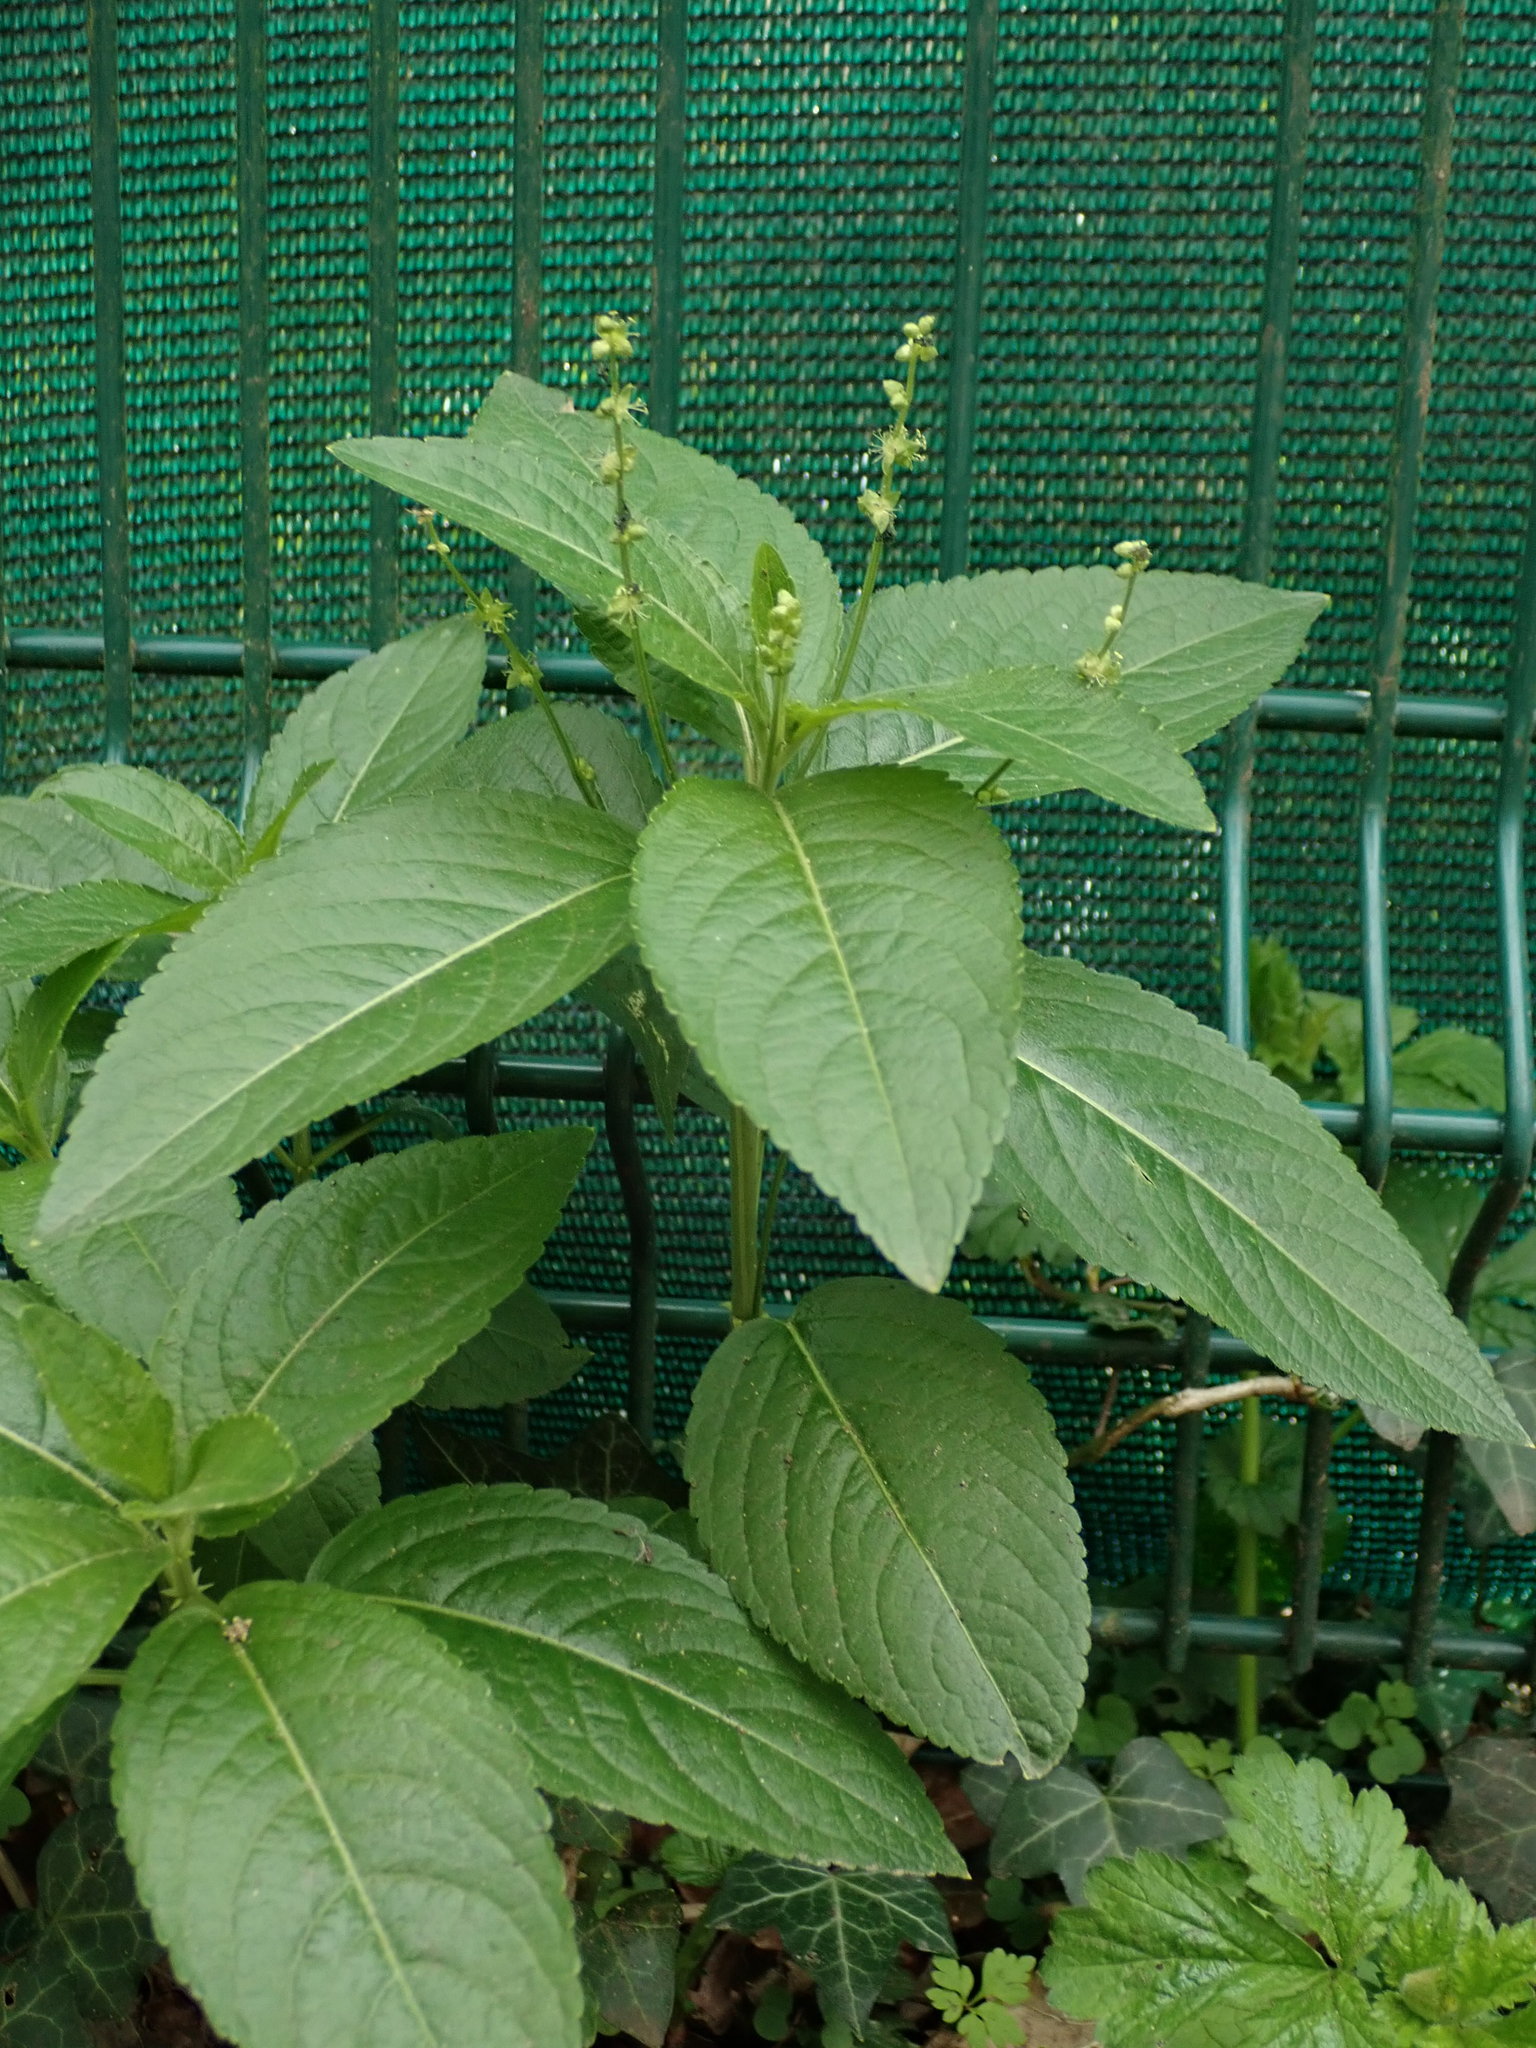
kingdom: Plantae
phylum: Tracheophyta
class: Magnoliopsida
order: Malpighiales
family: Euphorbiaceae
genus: Mercurialis
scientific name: Mercurialis perennis
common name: Dog mercury
